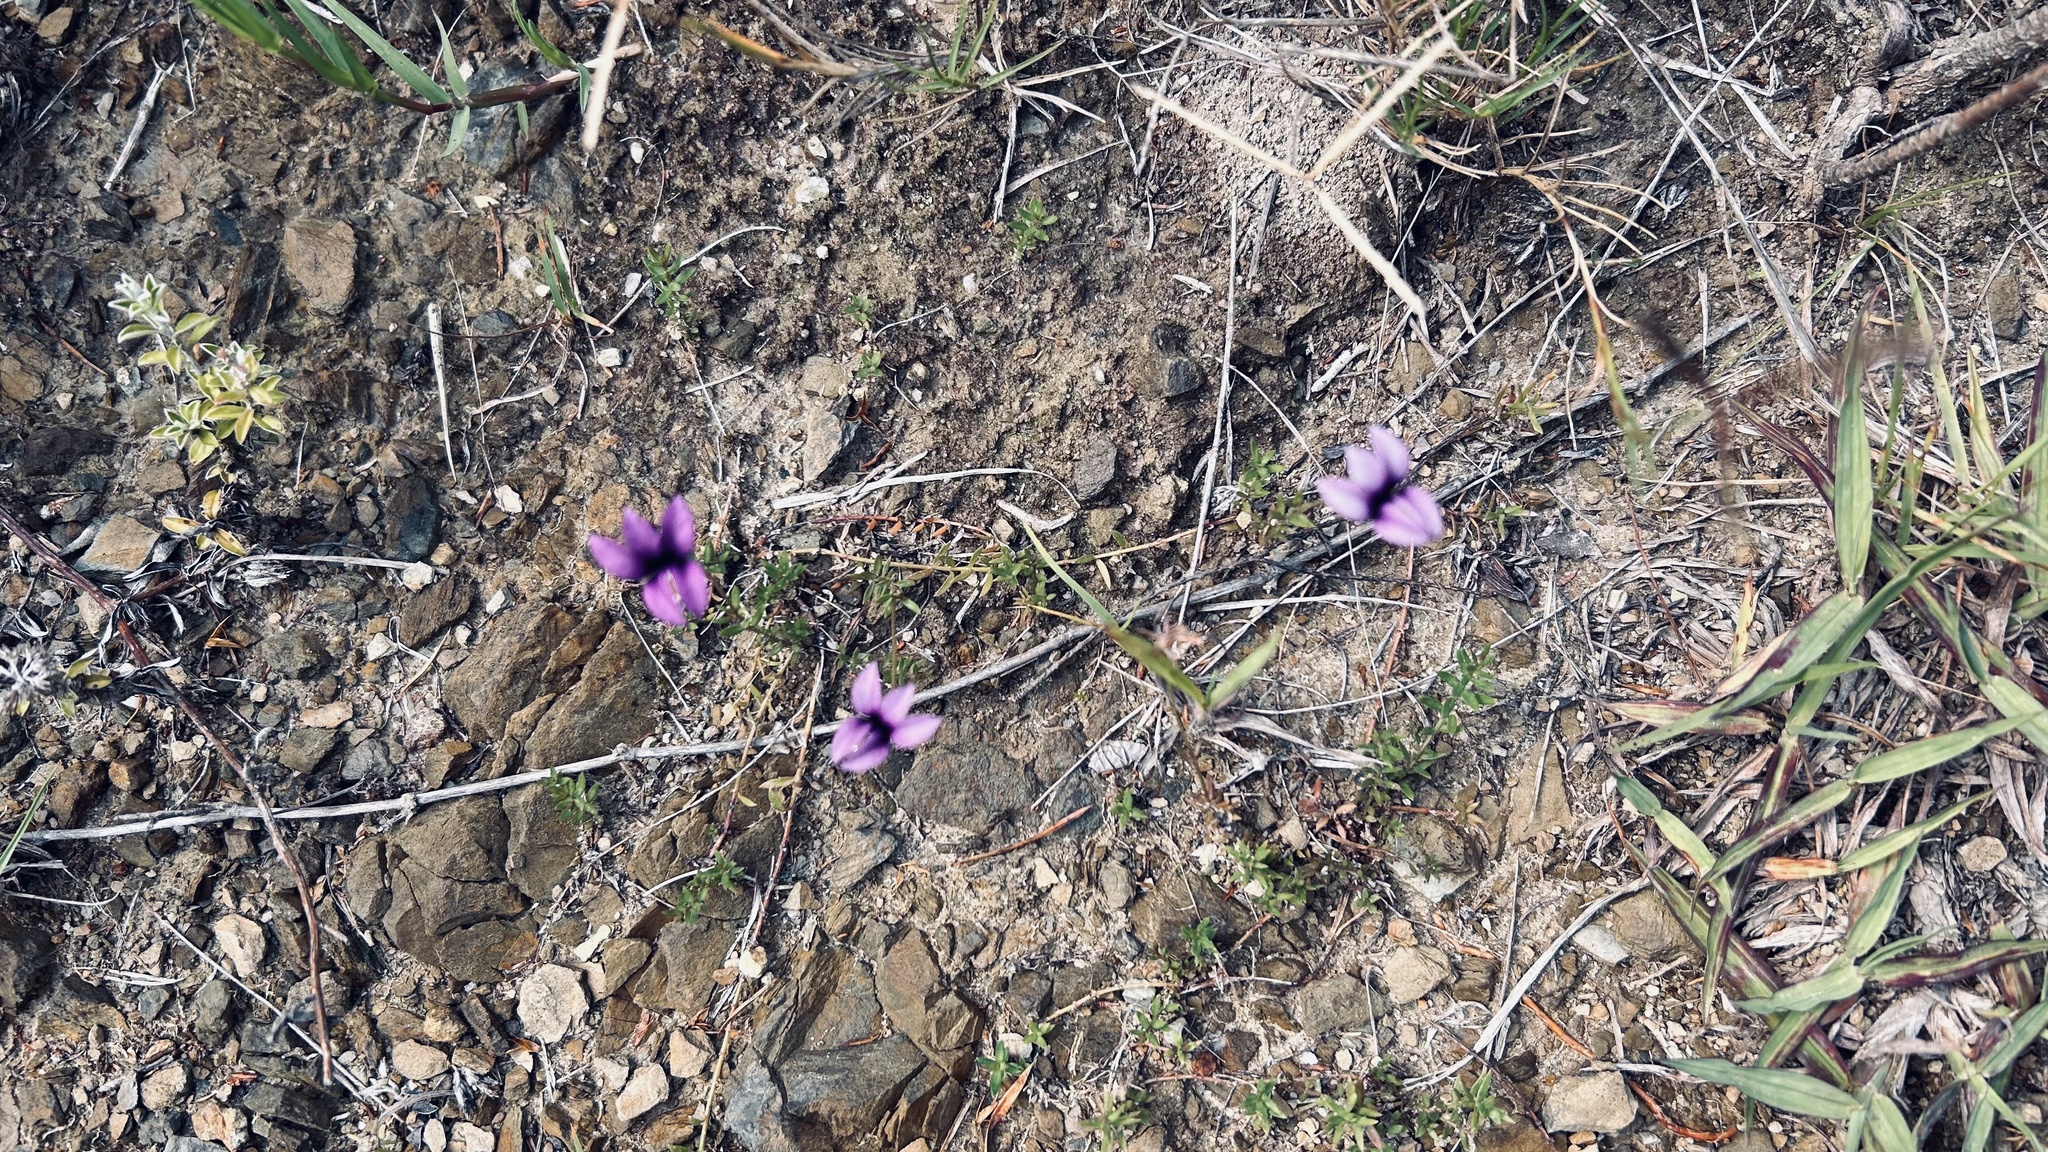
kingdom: Plantae
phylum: Tracheophyta
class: Magnoliopsida
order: Asterales
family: Campanulaceae
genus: Monopsis
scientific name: Monopsis unidentata
